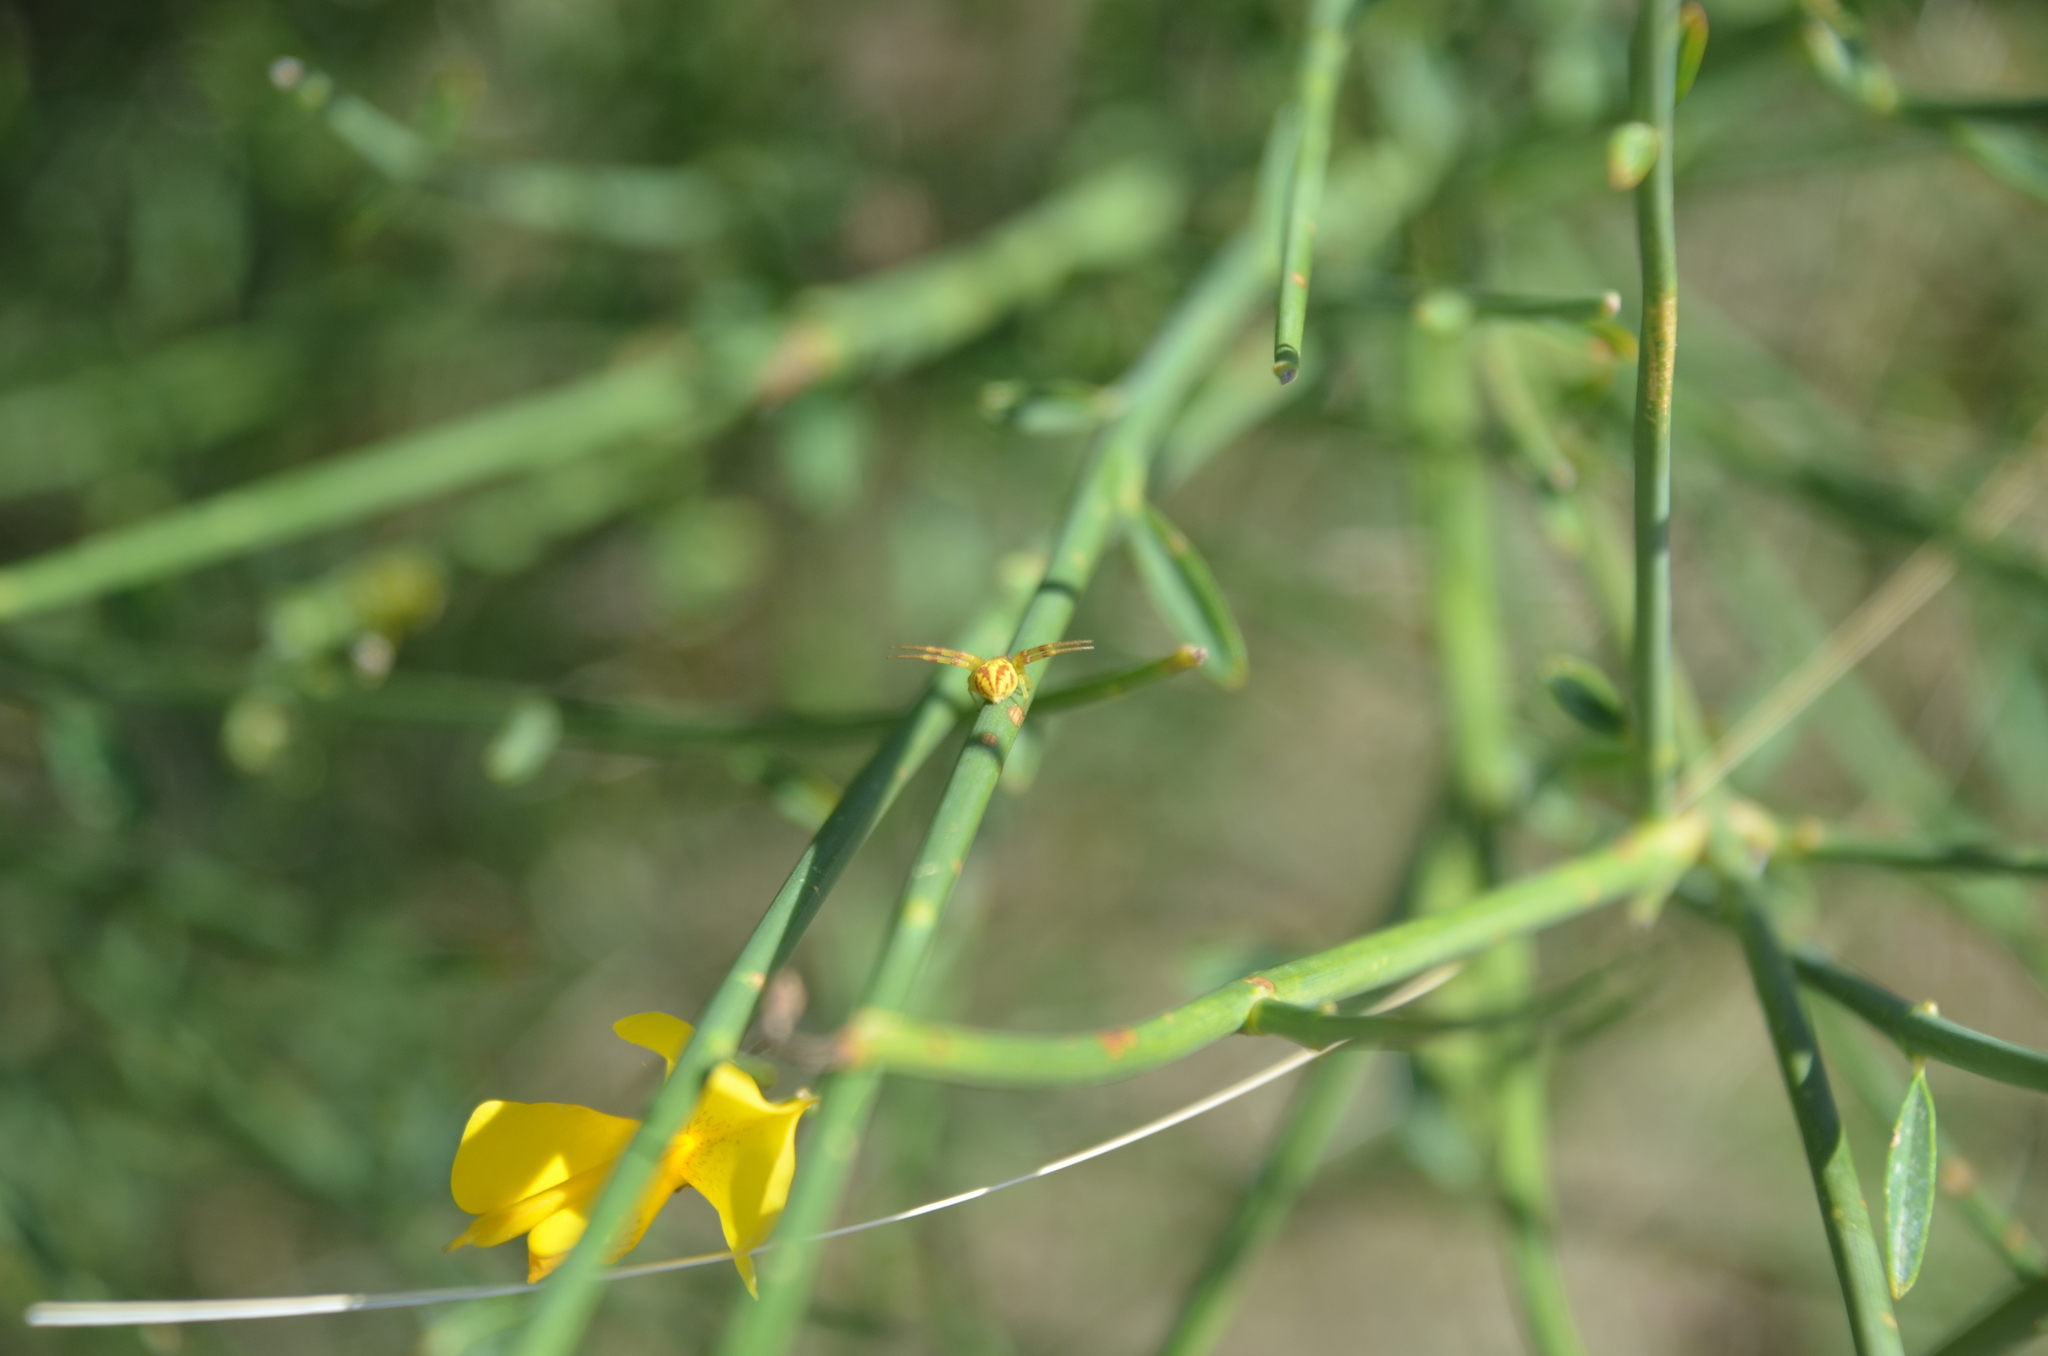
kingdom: Animalia
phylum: Arthropoda
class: Arachnida
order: Araneae
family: Thomisidae
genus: Misumenops
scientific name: Misumenops
